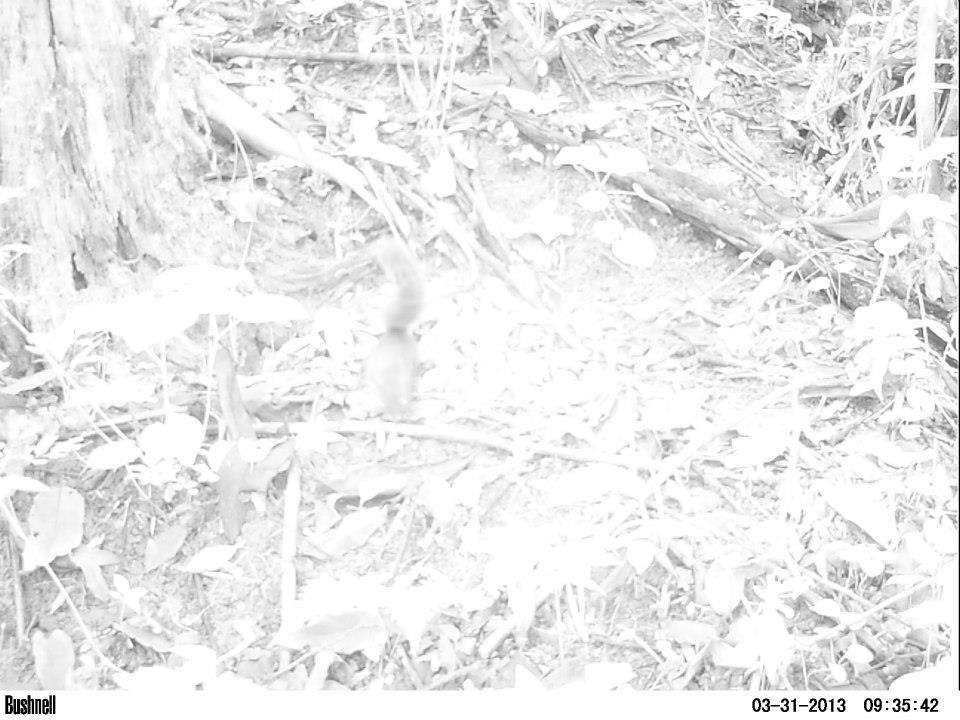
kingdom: Animalia
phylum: Chordata
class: Mammalia
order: Rodentia
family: Sciuridae
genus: Sciurus
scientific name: Sciurus aestuans
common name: Guianan squirrel
